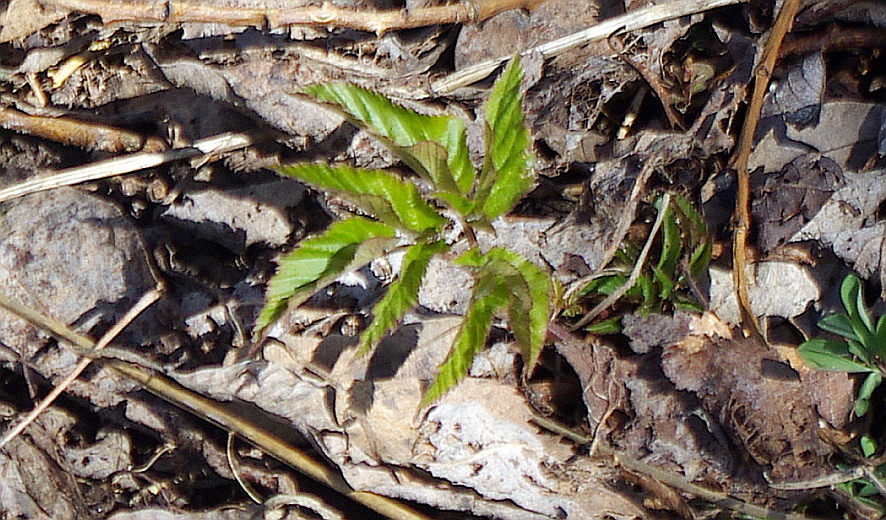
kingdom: Plantae
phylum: Tracheophyta
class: Magnoliopsida
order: Apiales
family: Apiaceae
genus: Aegopodium
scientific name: Aegopodium podagraria
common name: Ground-elder
